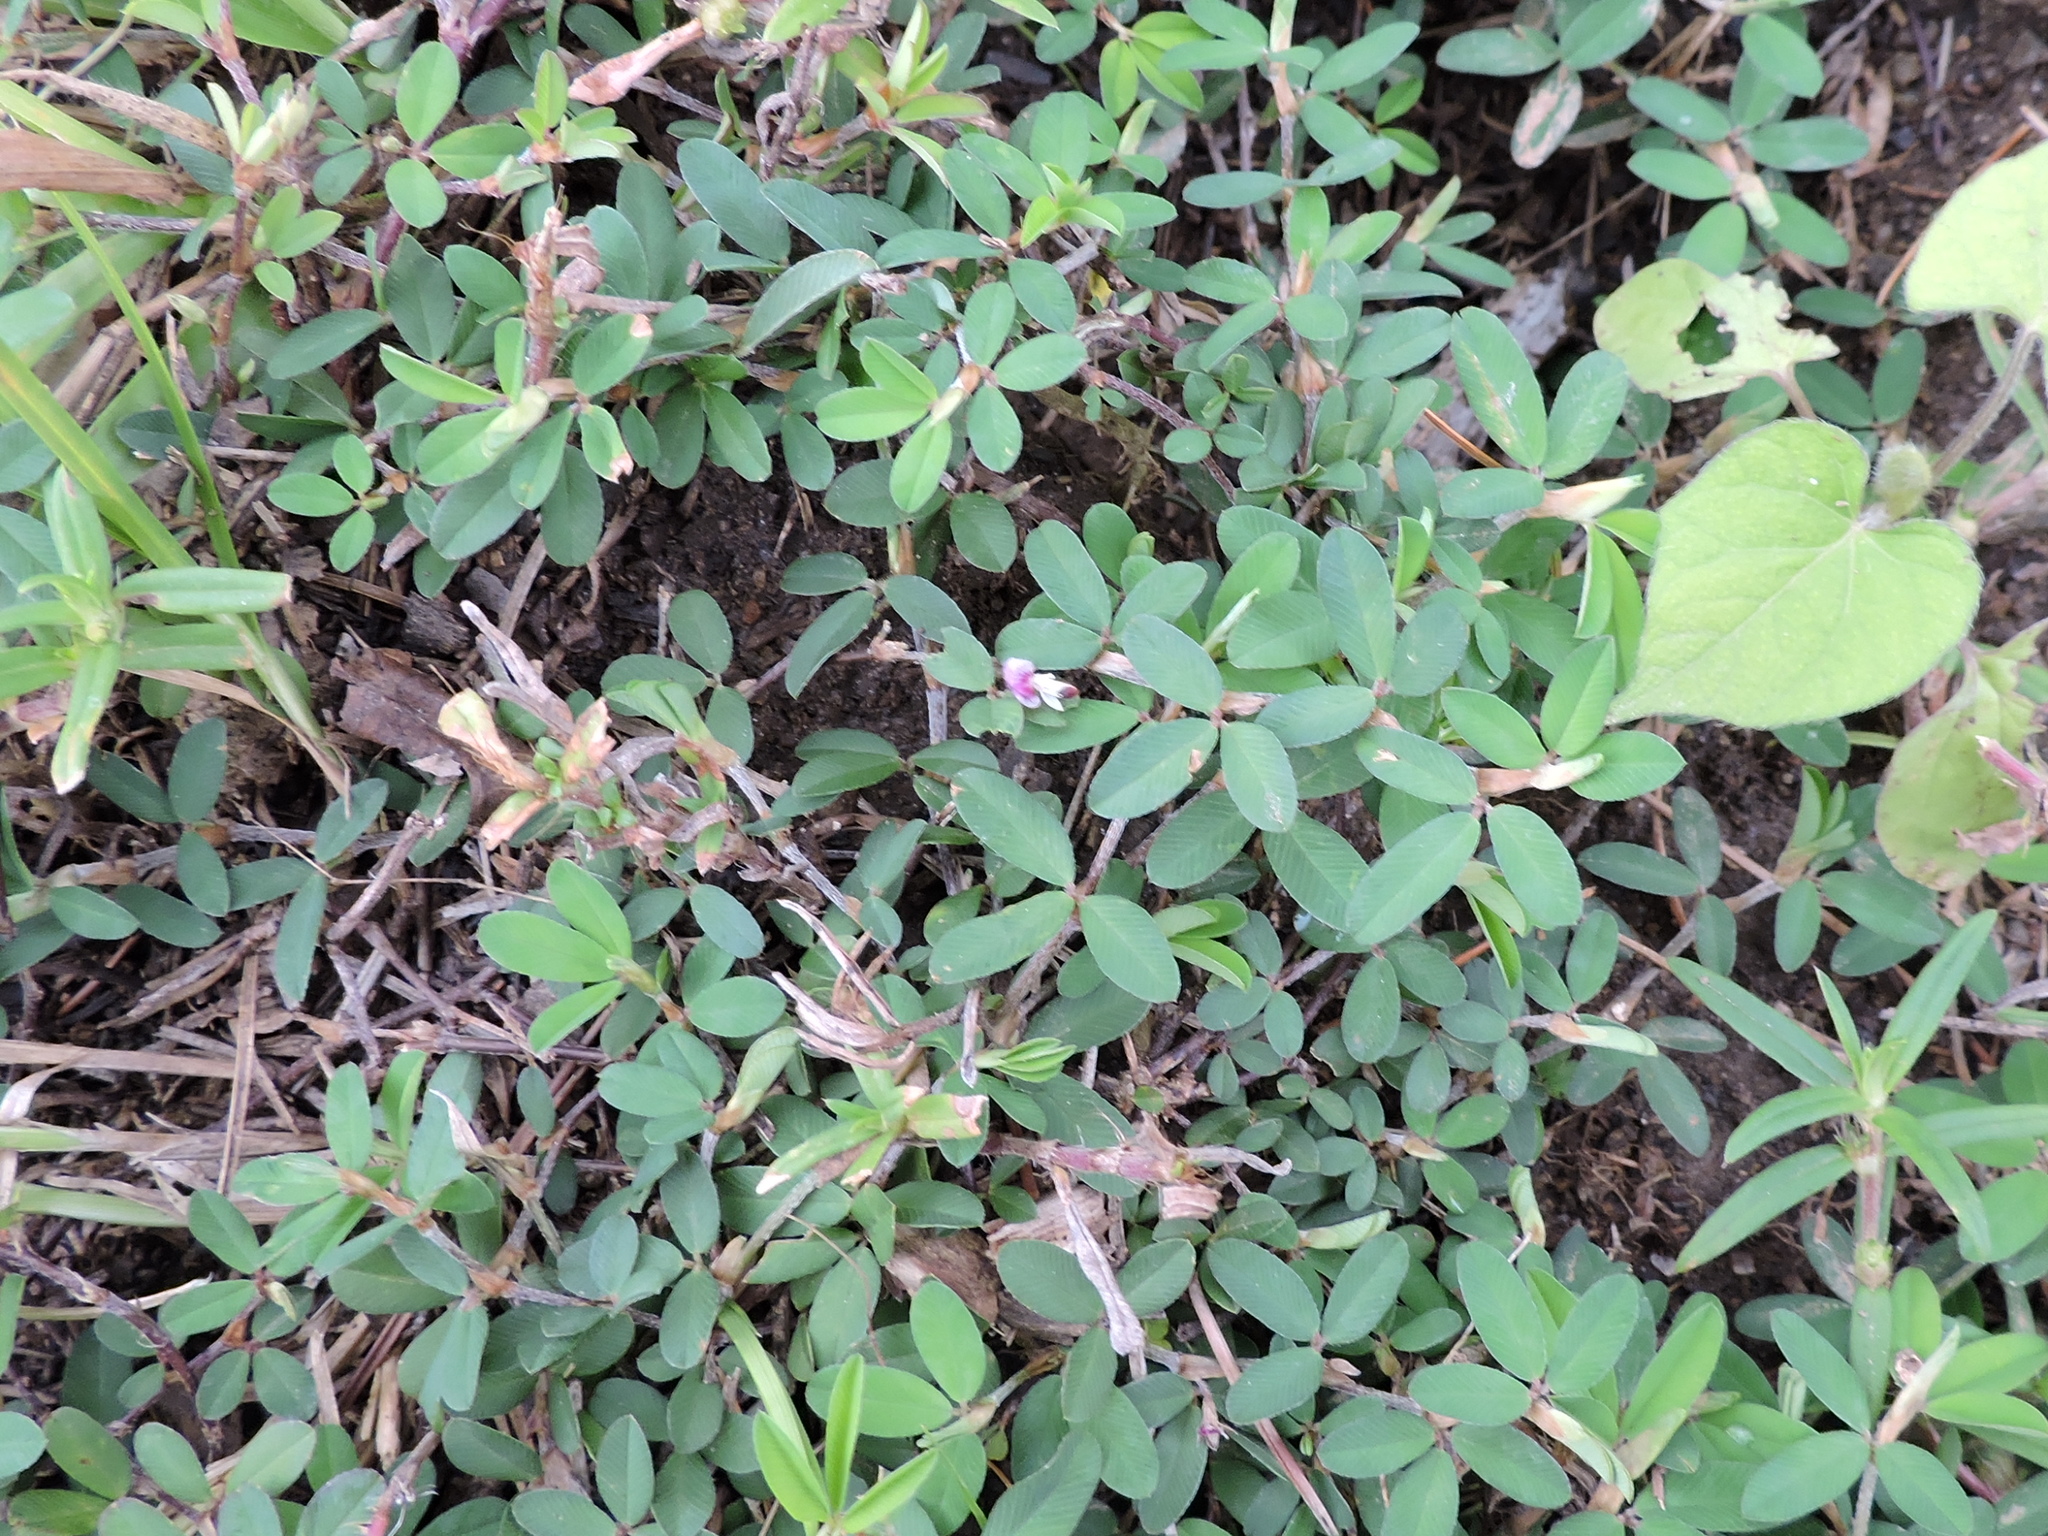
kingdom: Plantae
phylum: Tracheophyta
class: Magnoliopsida
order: Fabales
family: Fabaceae
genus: Kummerowia
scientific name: Kummerowia striata
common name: Japanese clover
